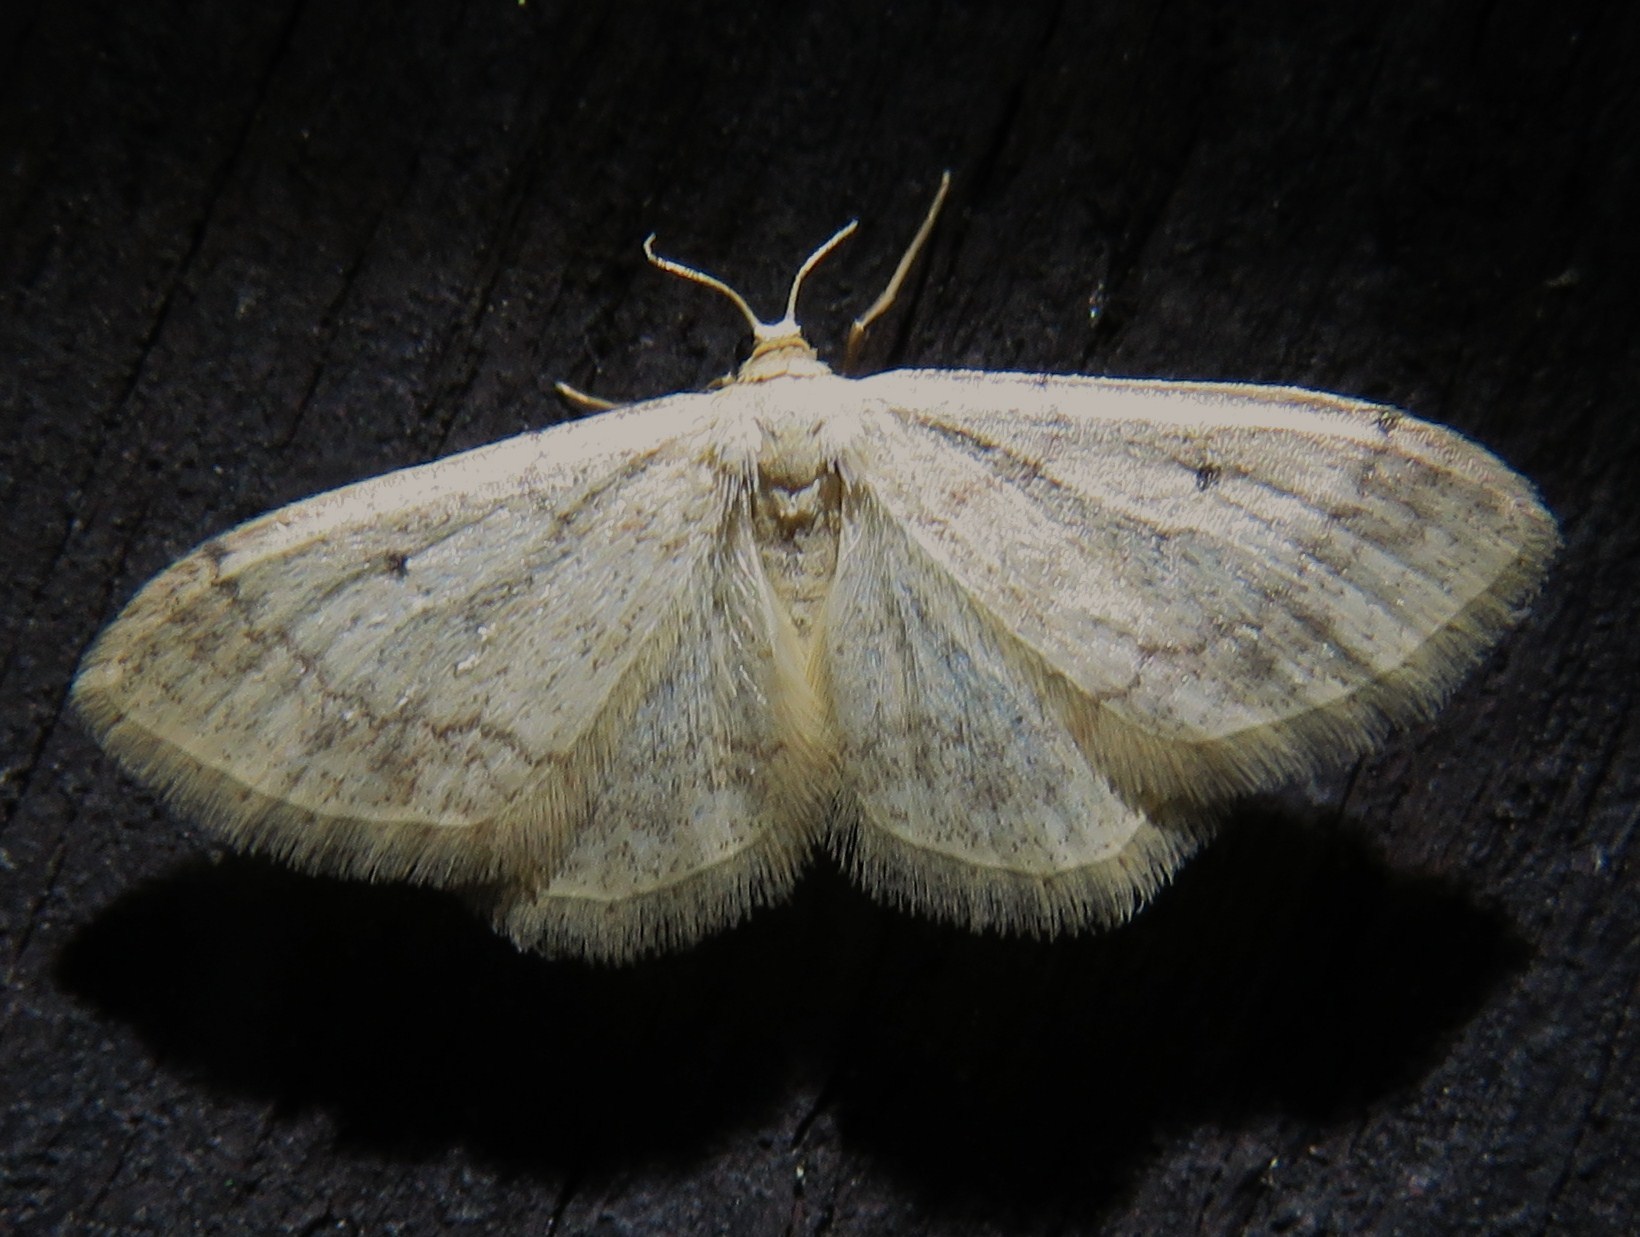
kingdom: Animalia
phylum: Arthropoda
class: Insecta
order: Lepidoptera
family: Geometridae
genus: Idaea
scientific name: Idaea biselata
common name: Small fan-footed wave
